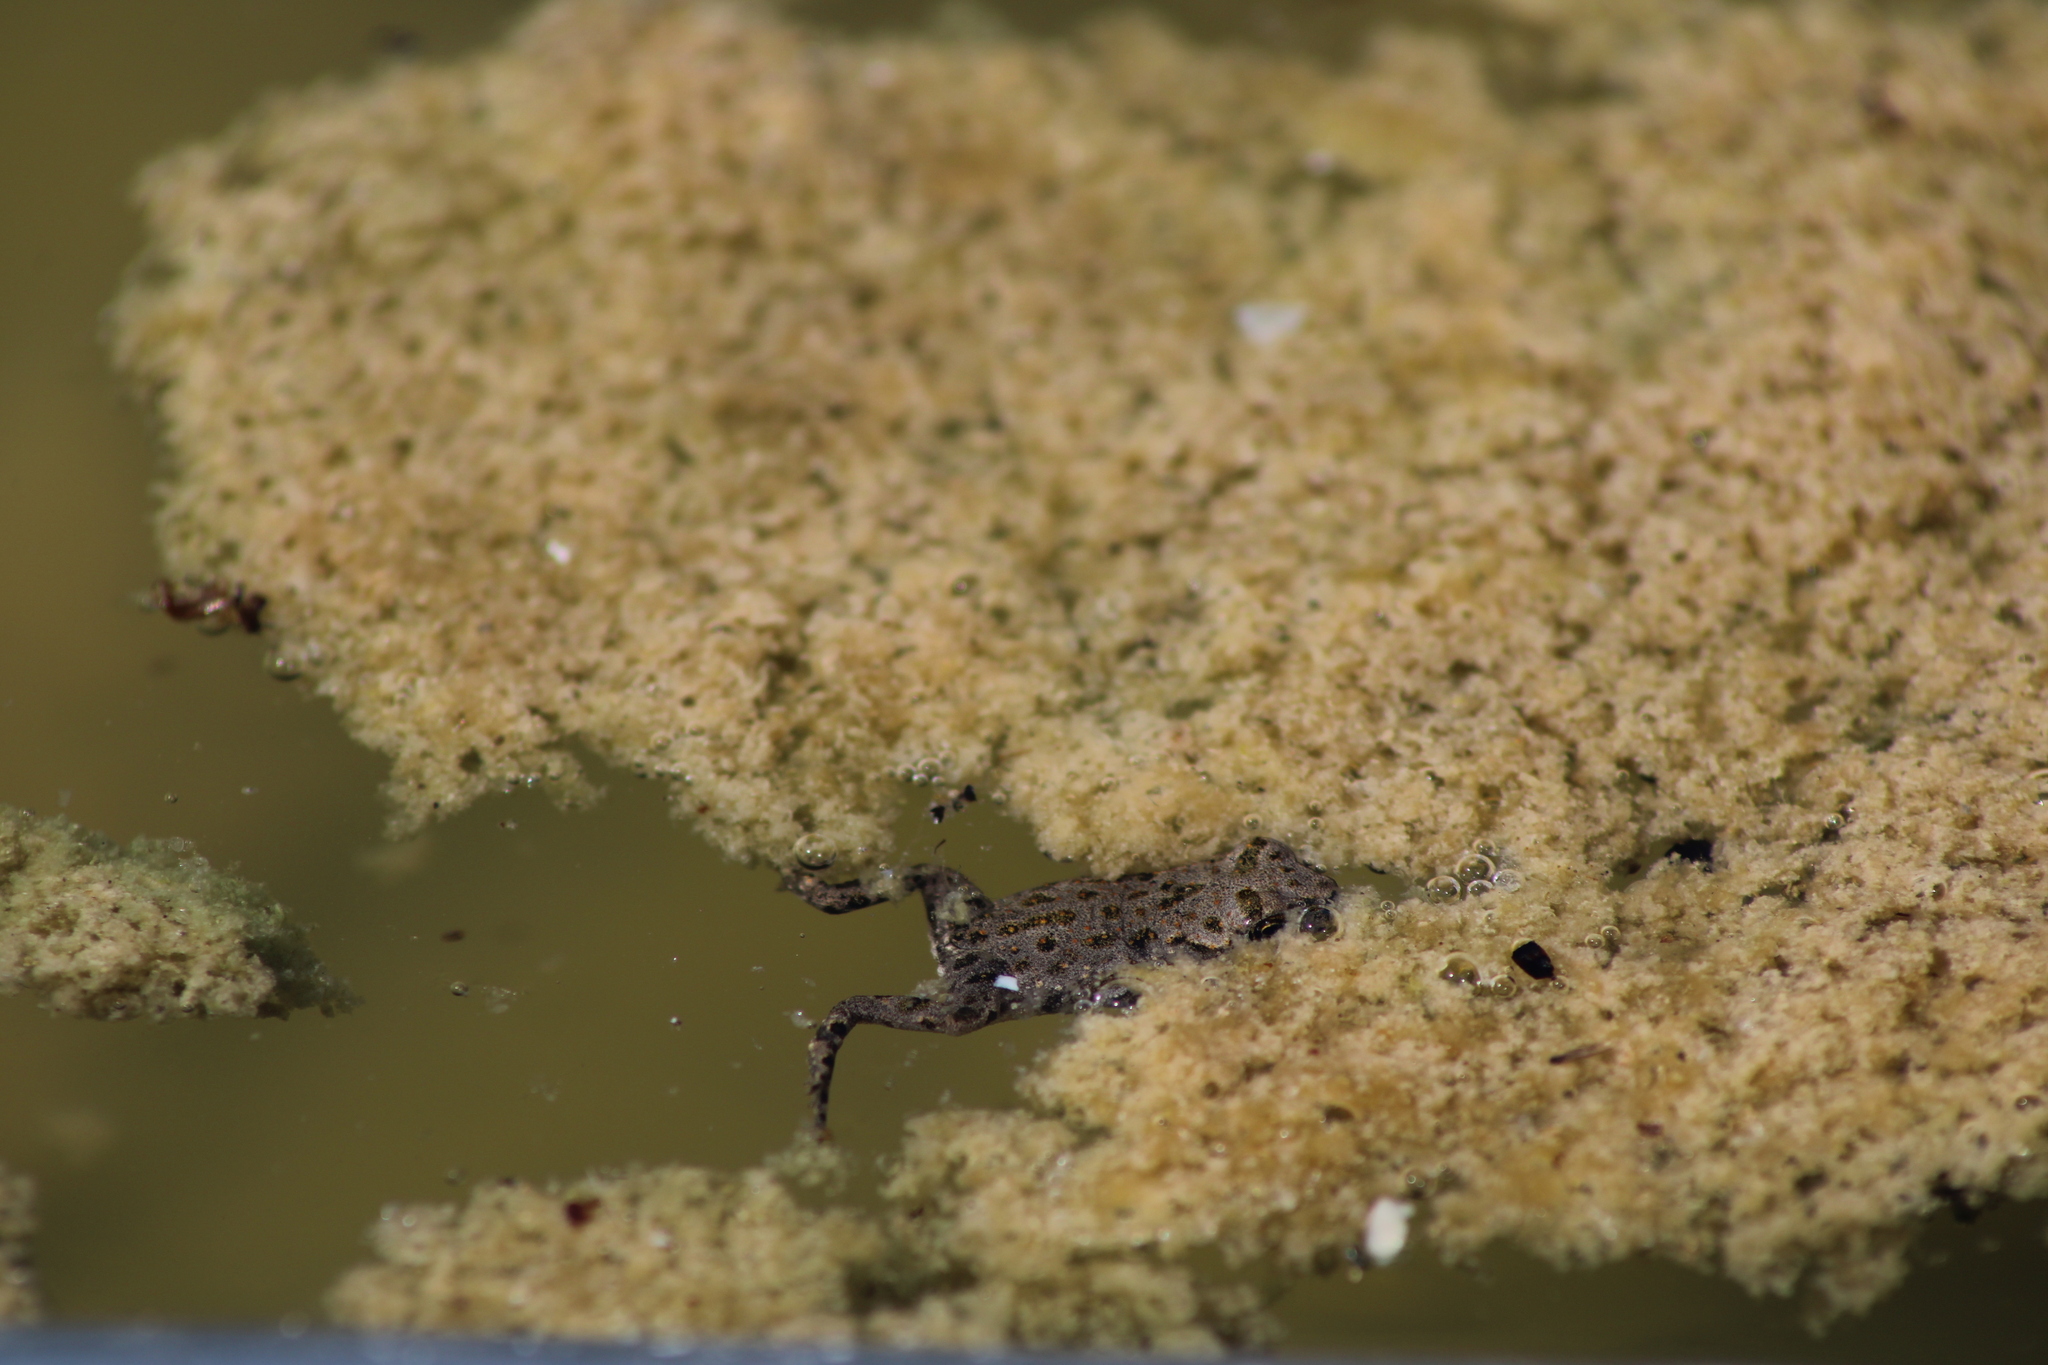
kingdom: Animalia
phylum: Chordata
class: Amphibia
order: Anura
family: Bufonidae
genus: Bufotes
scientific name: Bufotes viridis
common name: European green toad
